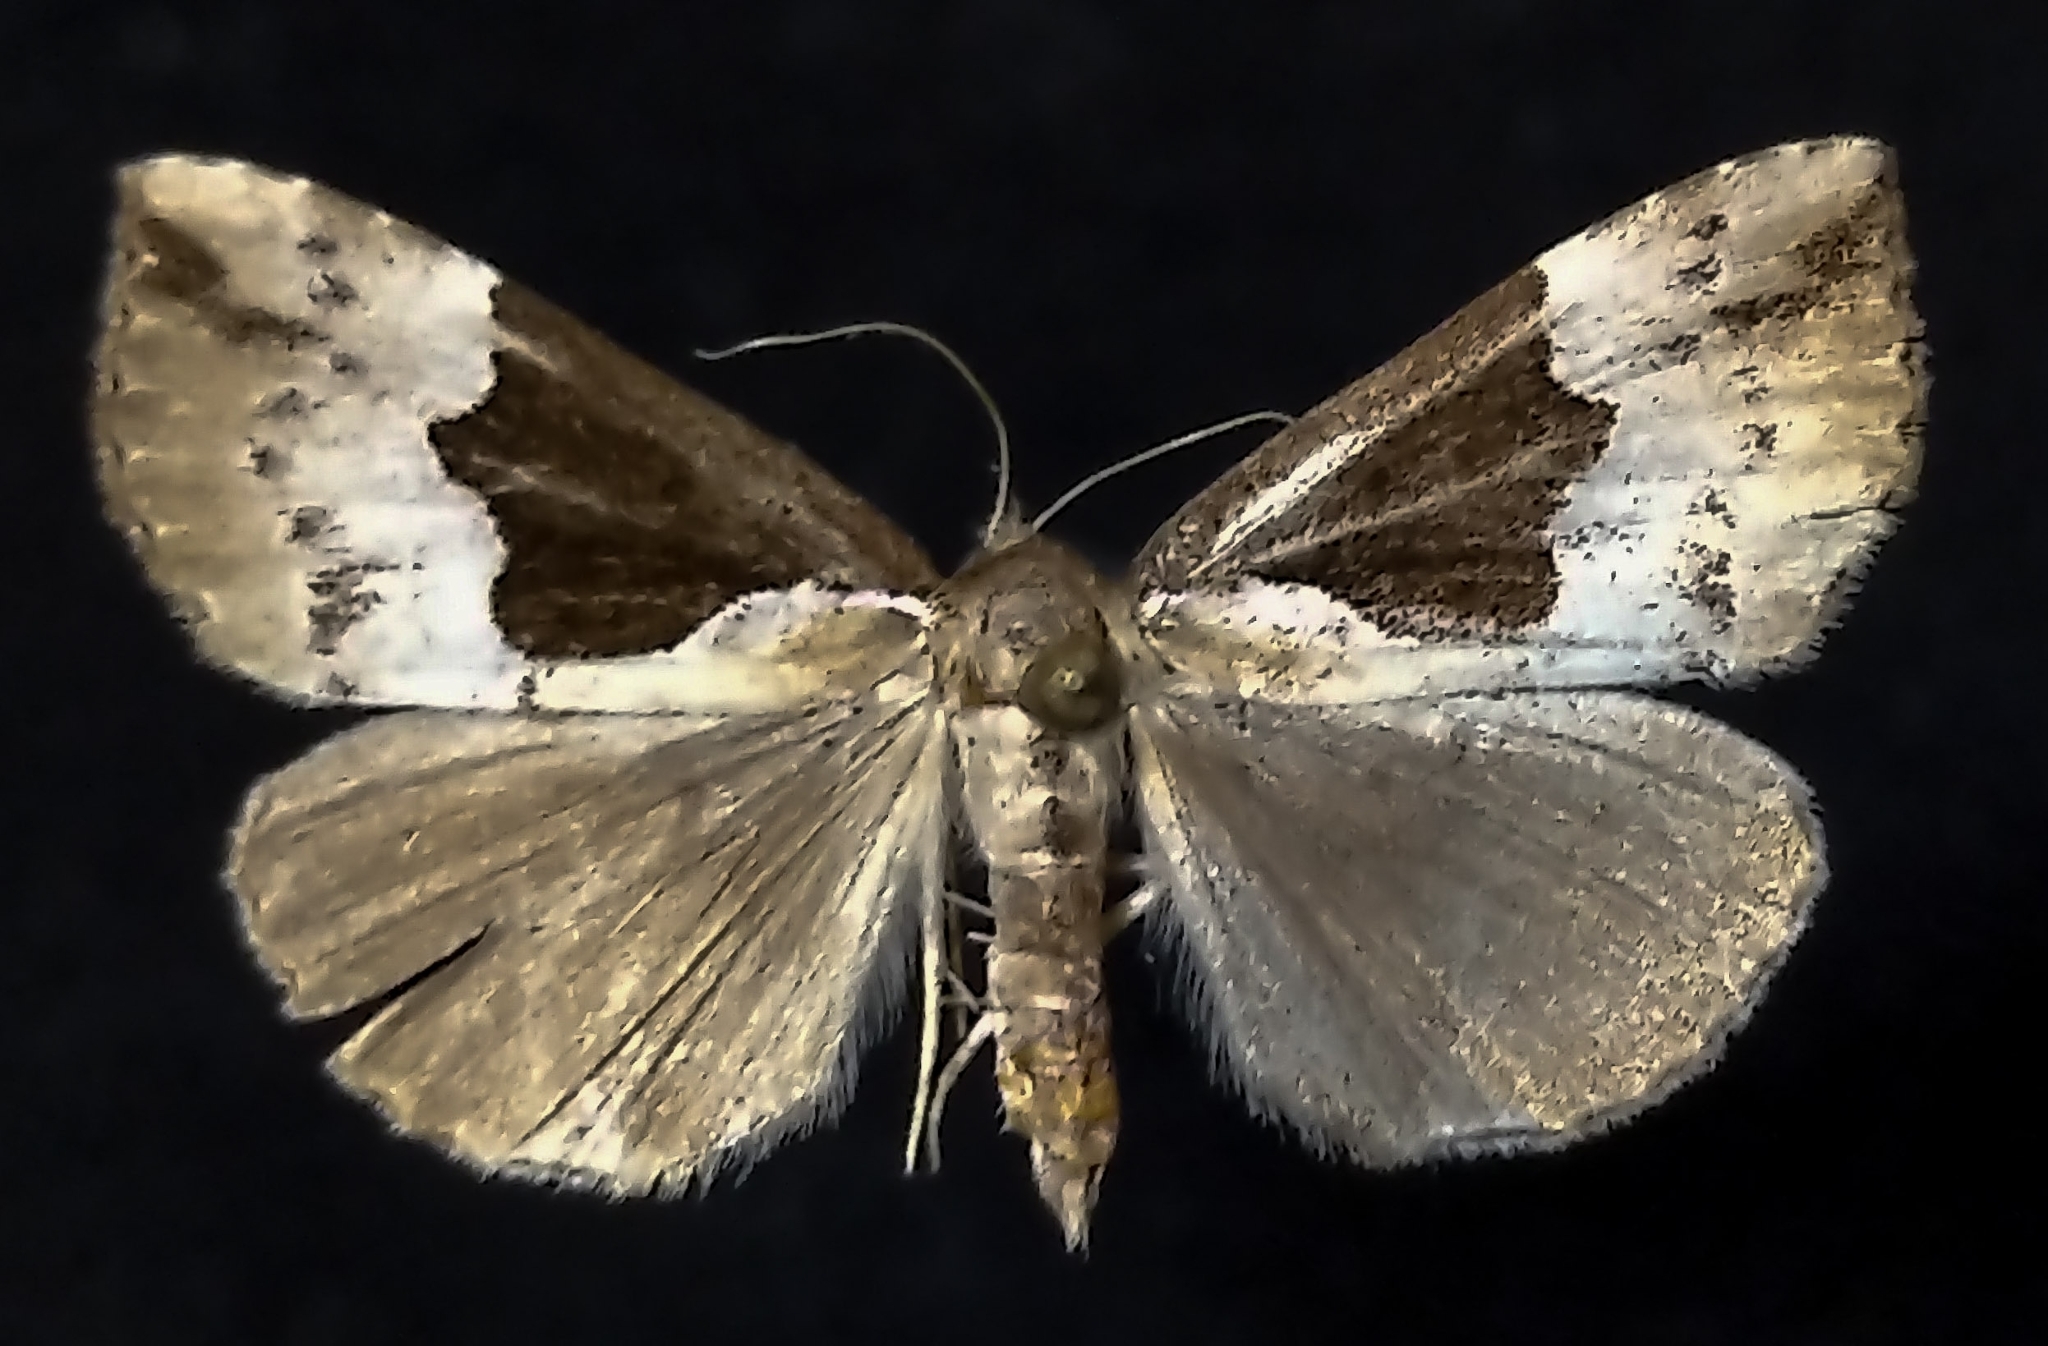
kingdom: Animalia
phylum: Arthropoda
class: Insecta
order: Lepidoptera
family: Erebidae
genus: Hypena
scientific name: Hypena bijugalis
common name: Dimorphic bomolocha moth
